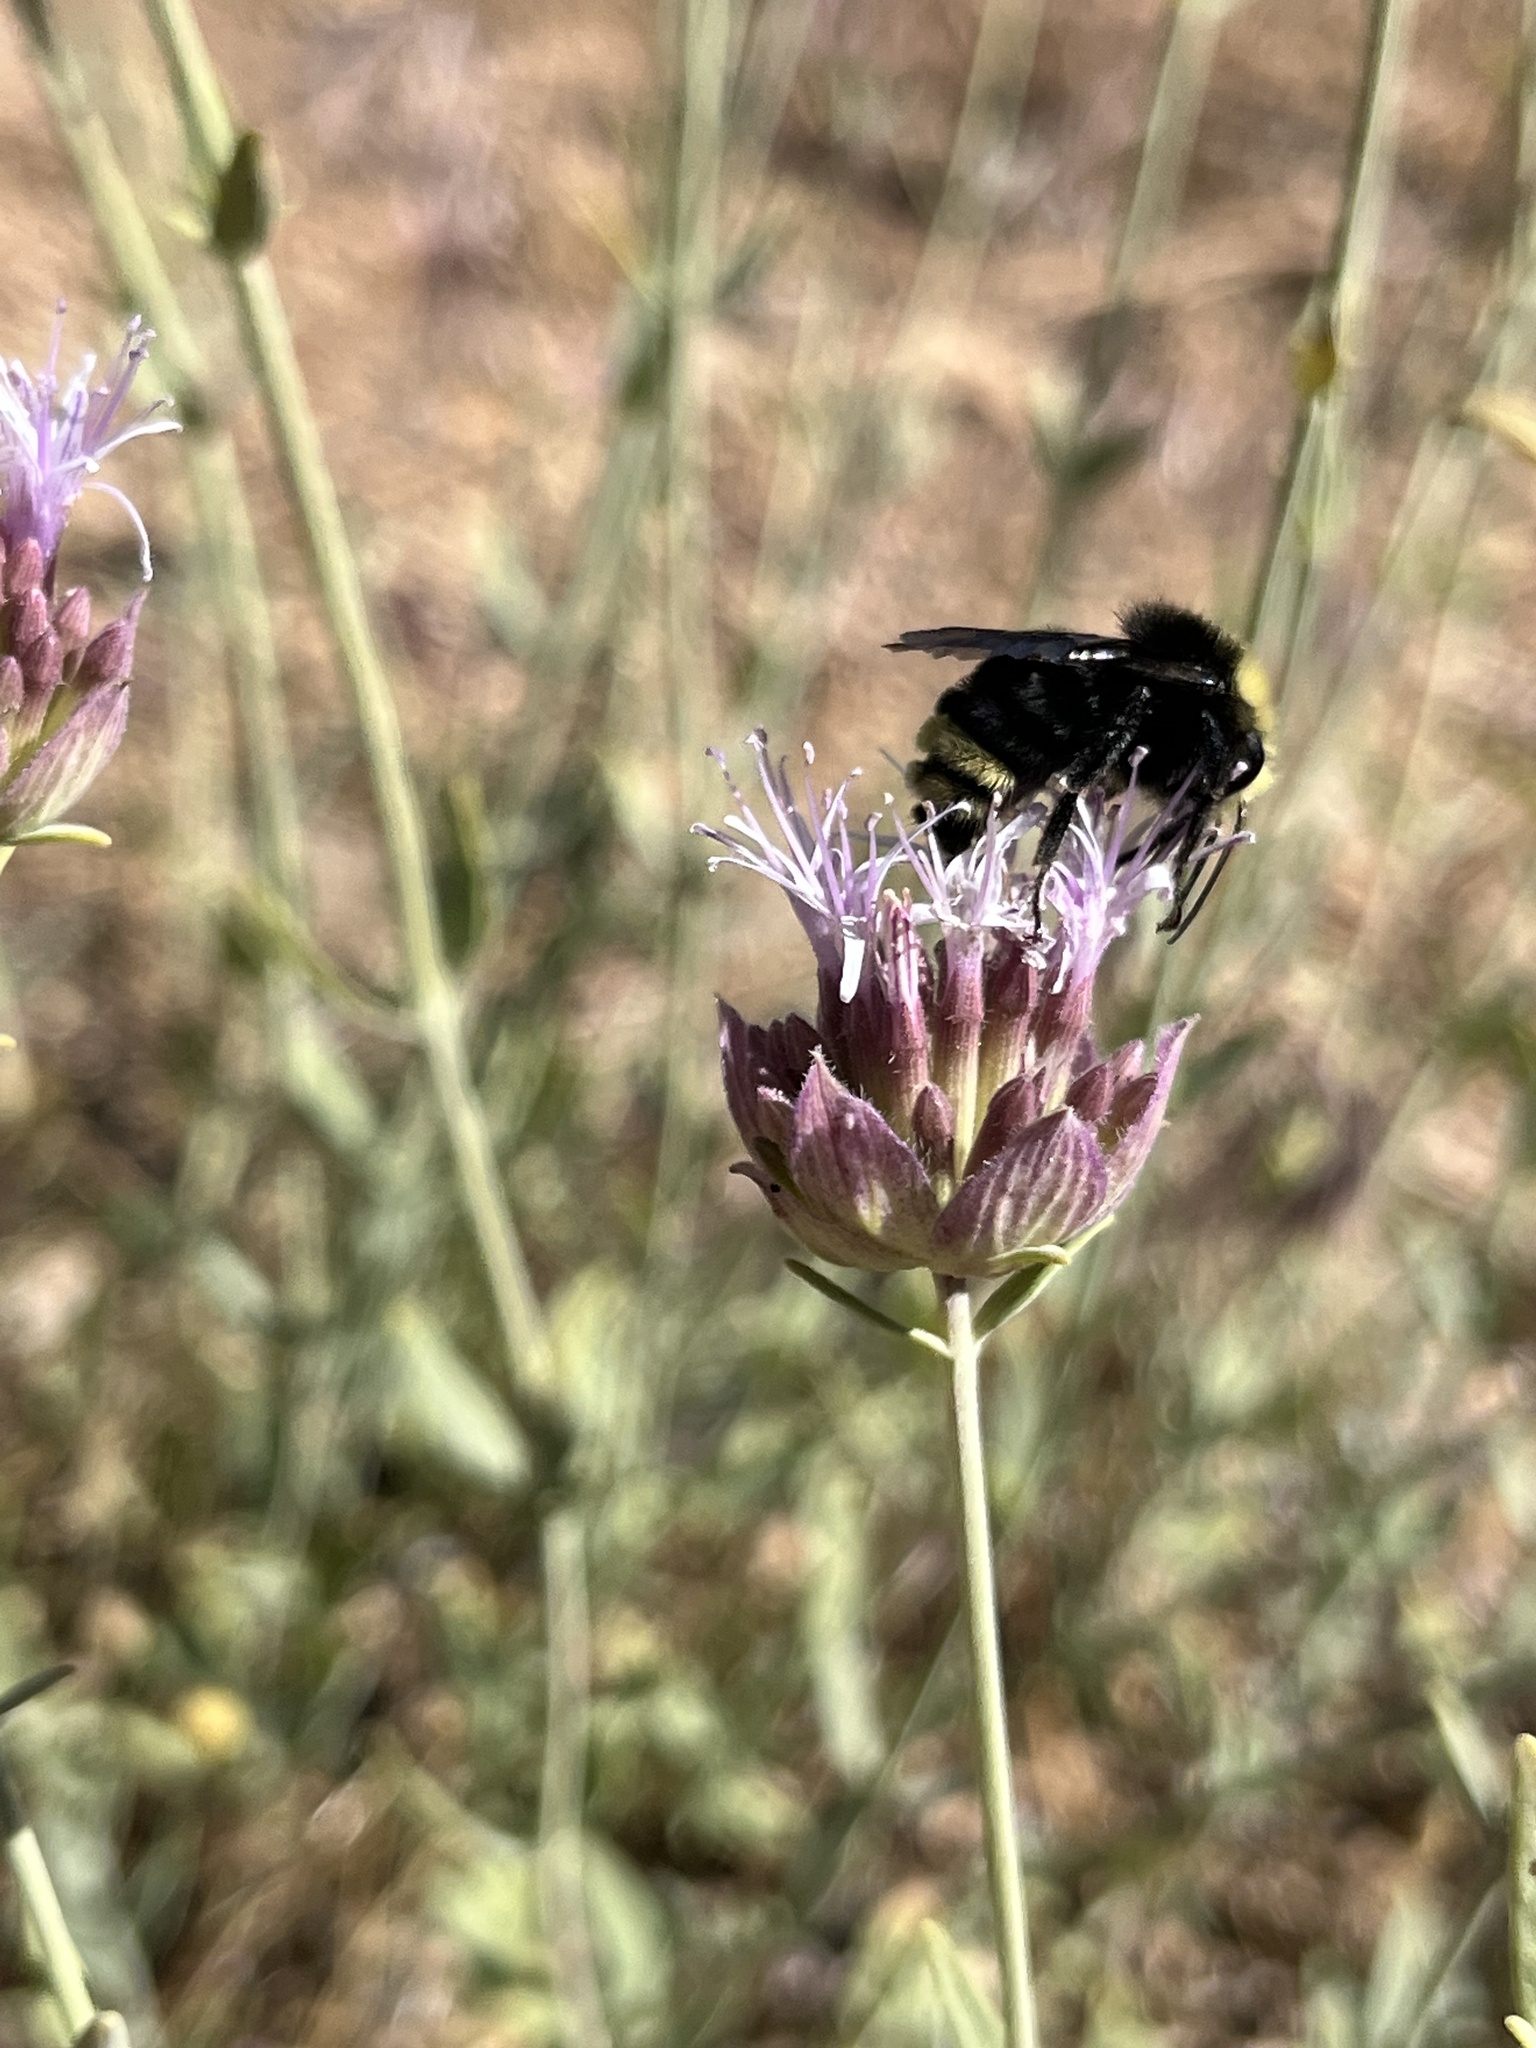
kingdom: Animalia
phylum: Arthropoda
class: Insecta
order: Hymenoptera
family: Apidae
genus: Bombus
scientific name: Bombus vosnesenskii
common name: Vosnesensky bumble bee
